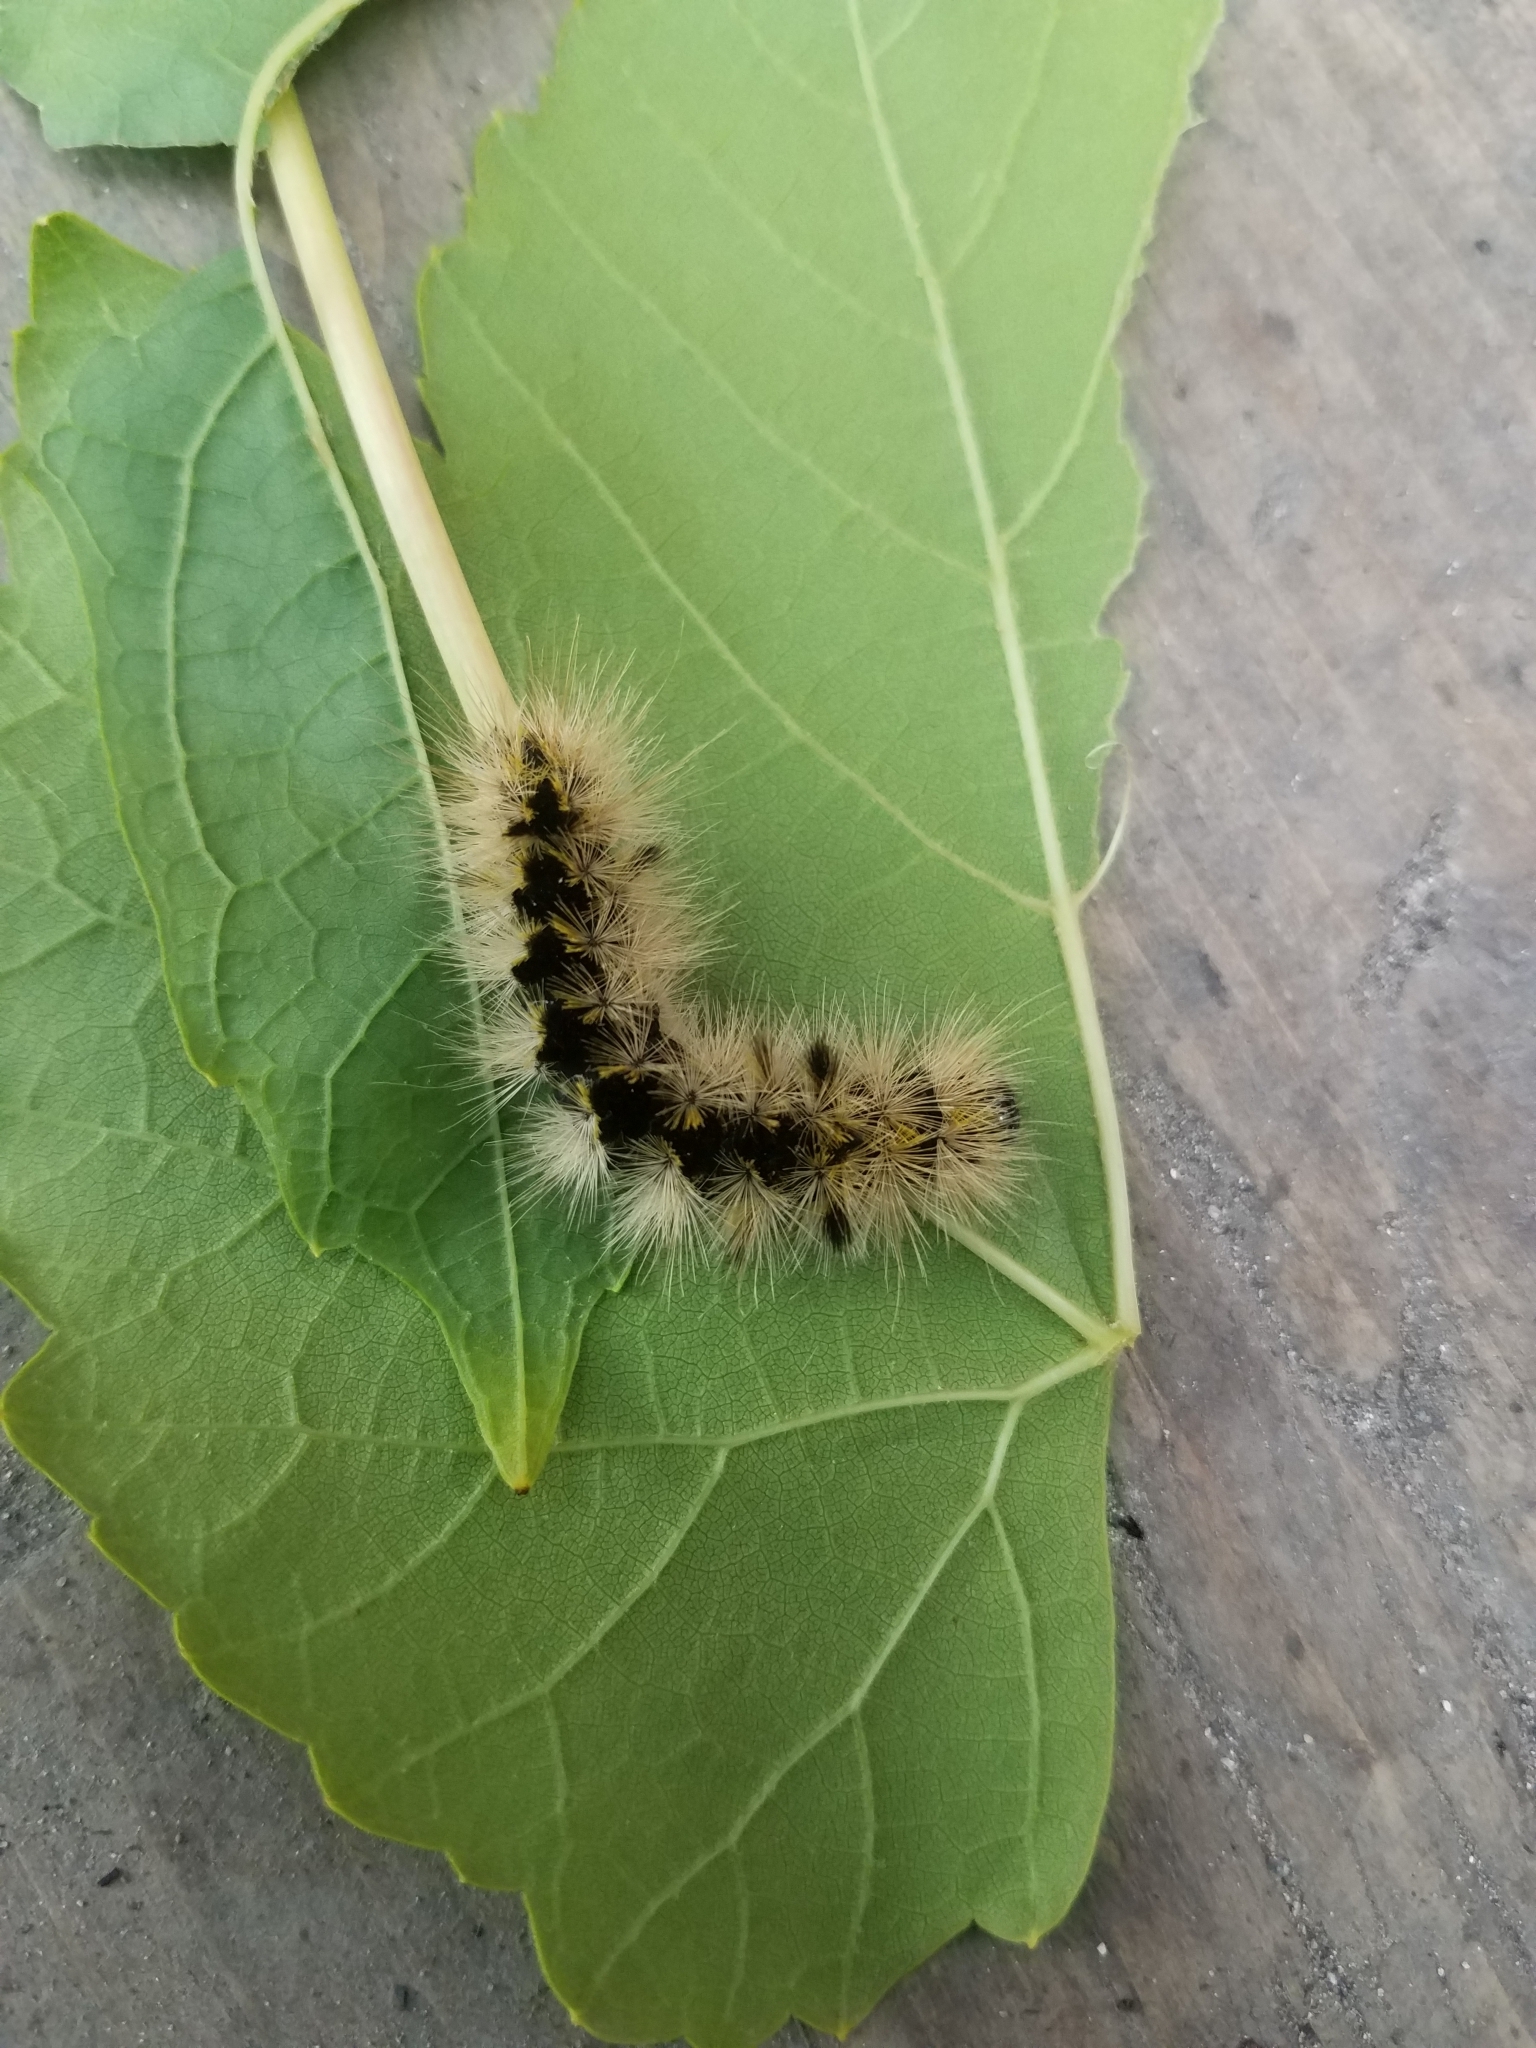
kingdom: Animalia
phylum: Arthropoda
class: Insecta
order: Lepidoptera
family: Erebidae
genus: Lophocampa
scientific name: Lophocampa argentata
